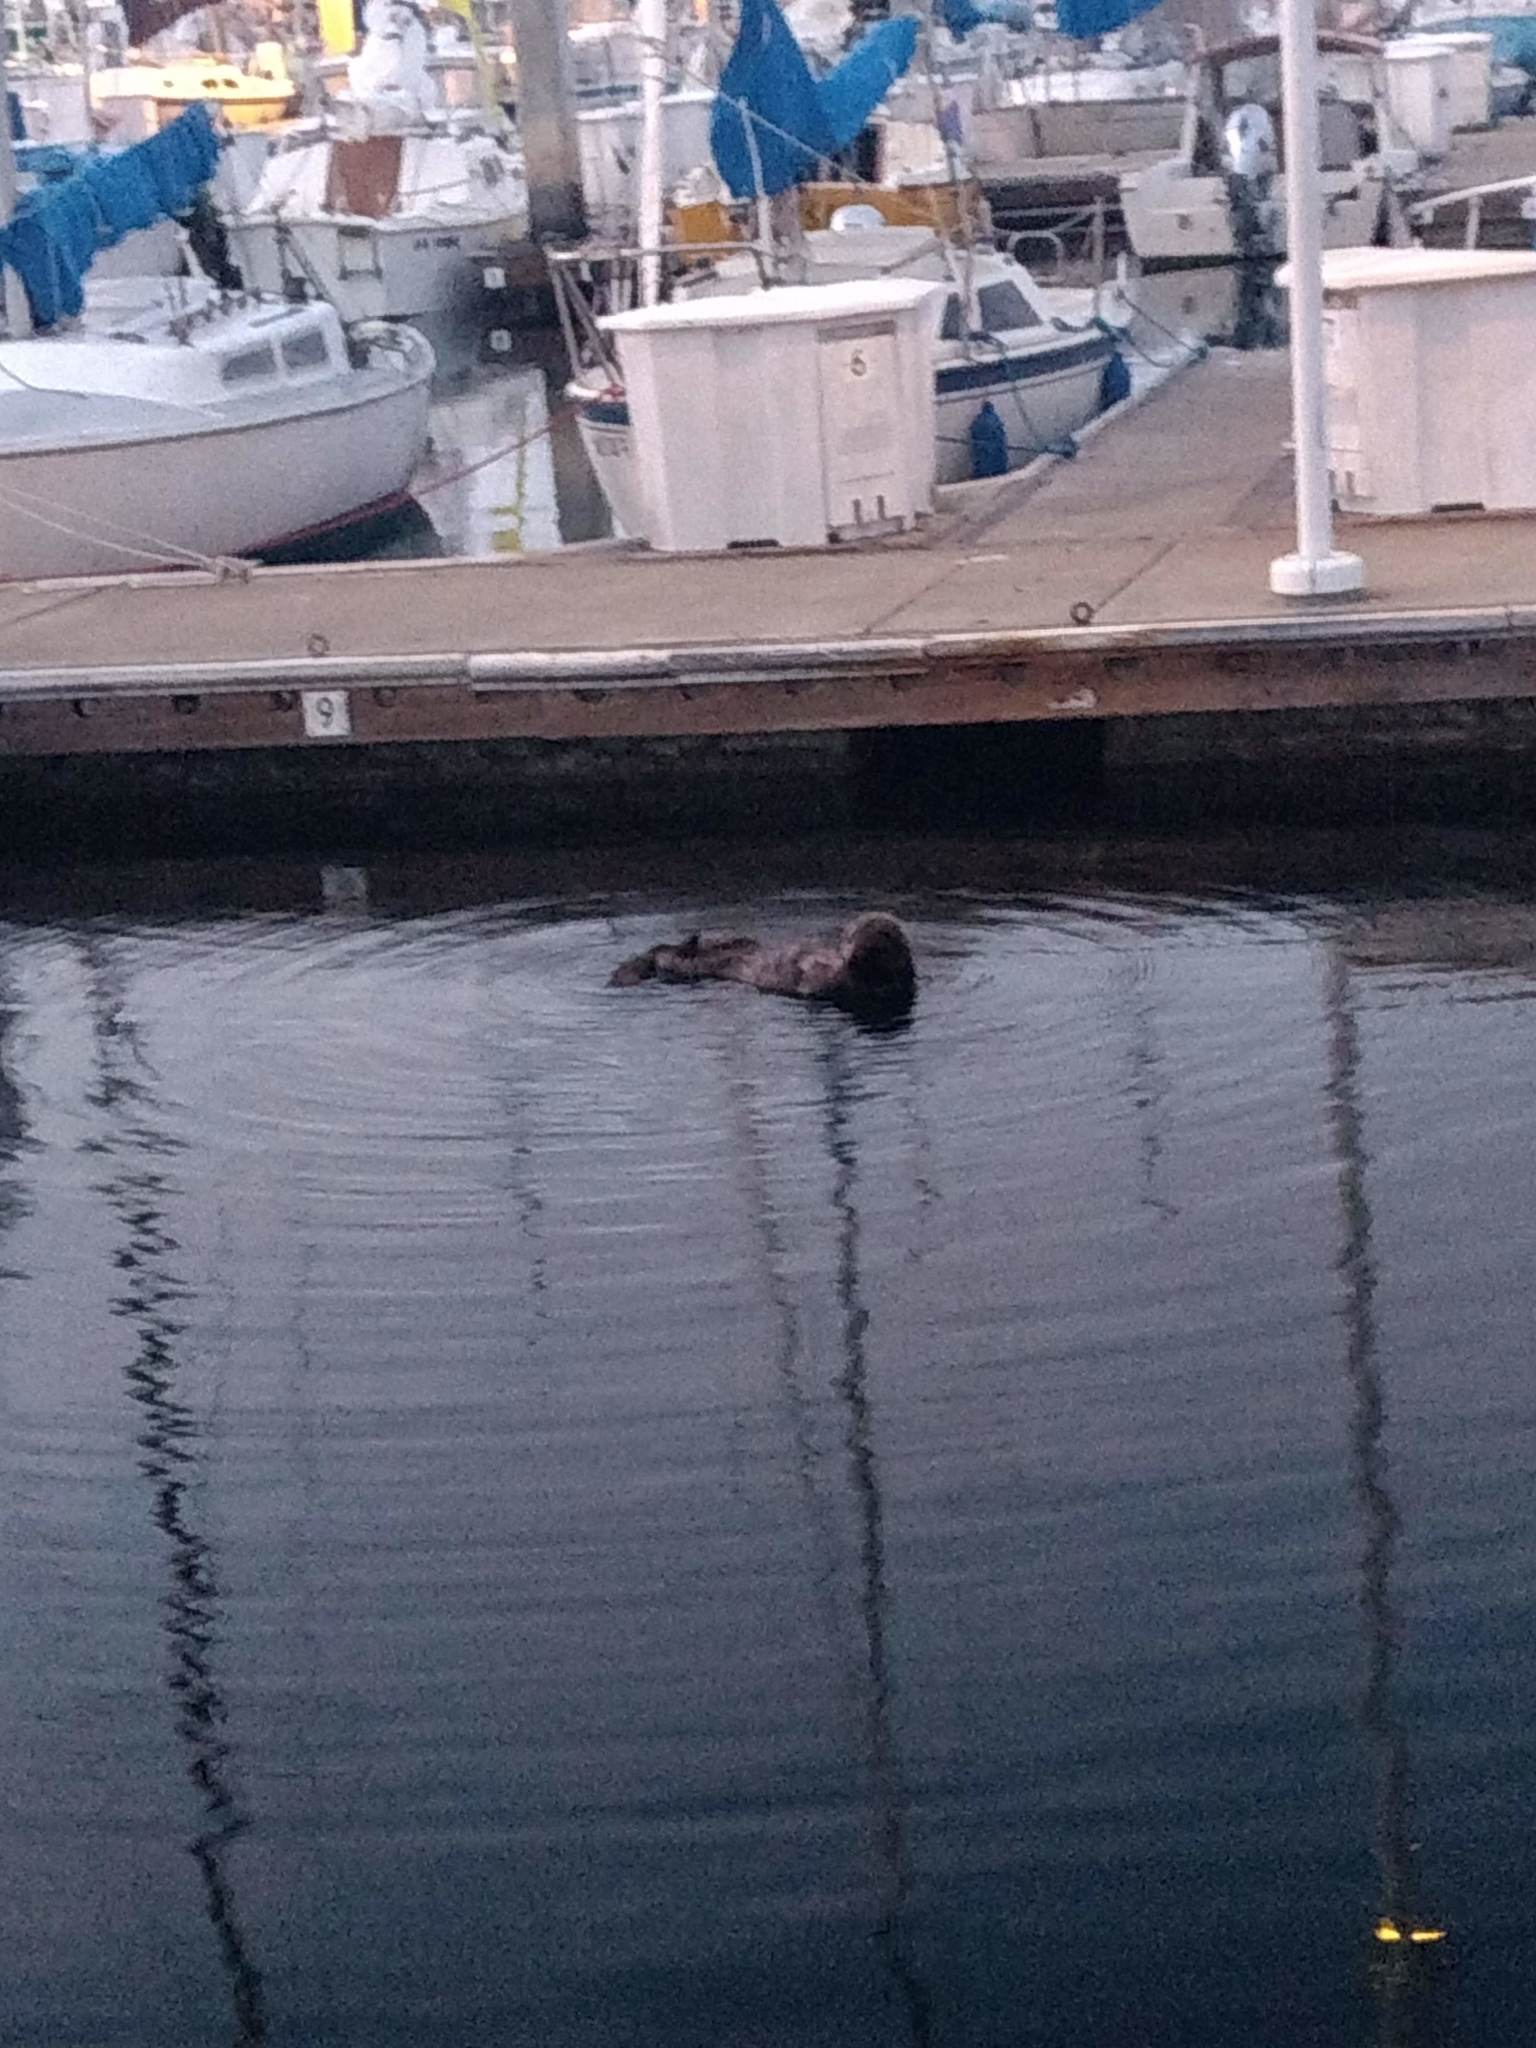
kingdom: Animalia
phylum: Chordata
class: Mammalia
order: Carnivora
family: Mustelidae
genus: Enhydra
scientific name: Enhydra lutris
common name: Sea otter
